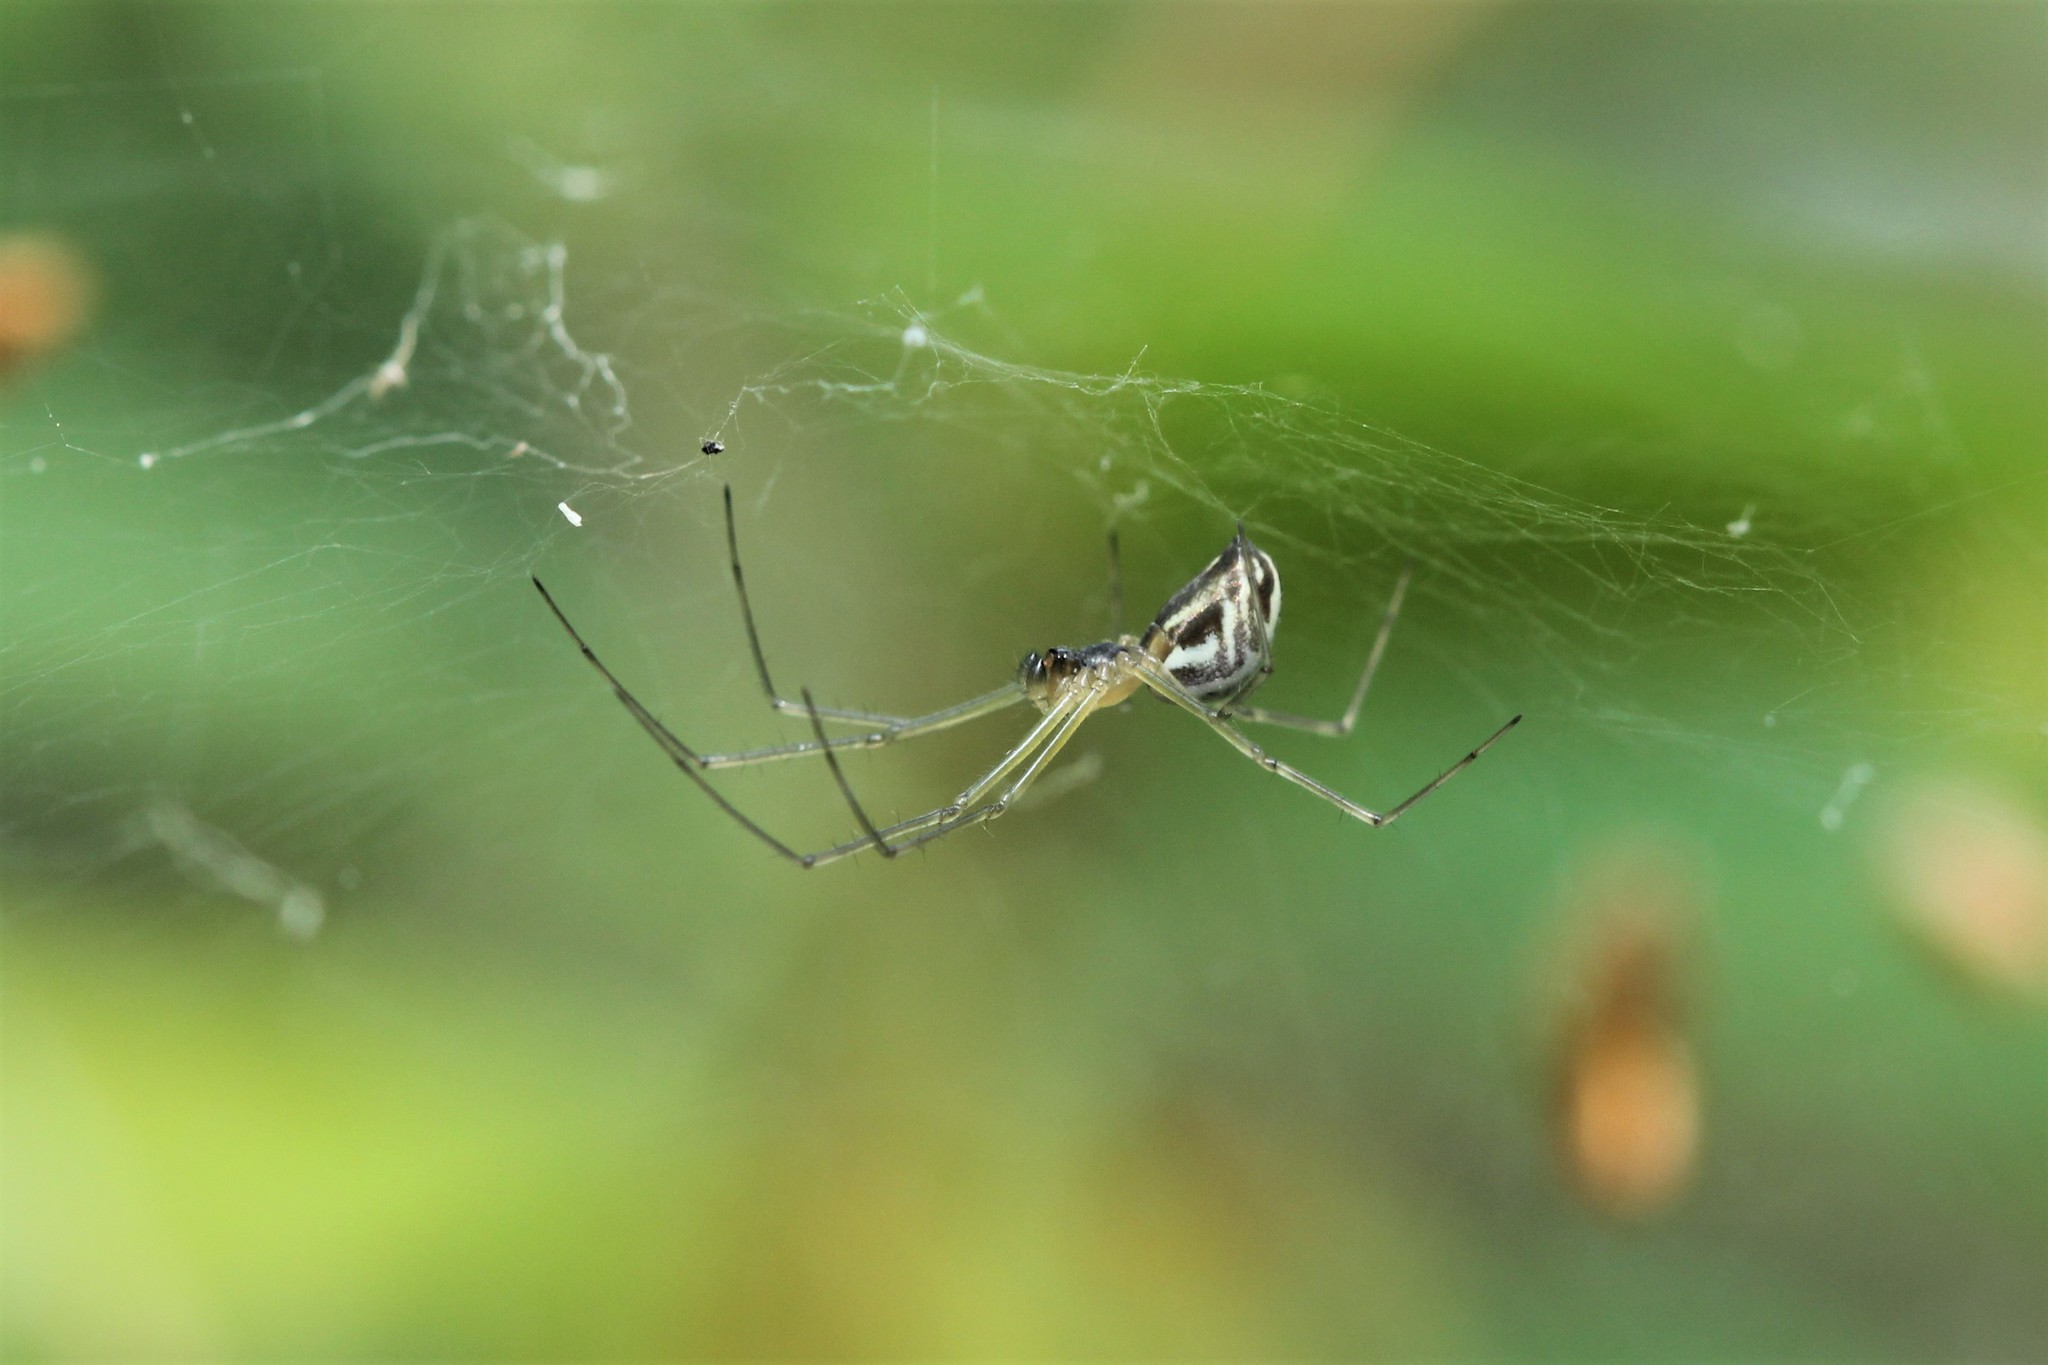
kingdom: Animalia
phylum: Arthropoda
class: Arachnida
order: Araneae
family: Linyphiidae
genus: Neriene
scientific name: Neriene litigiosa
